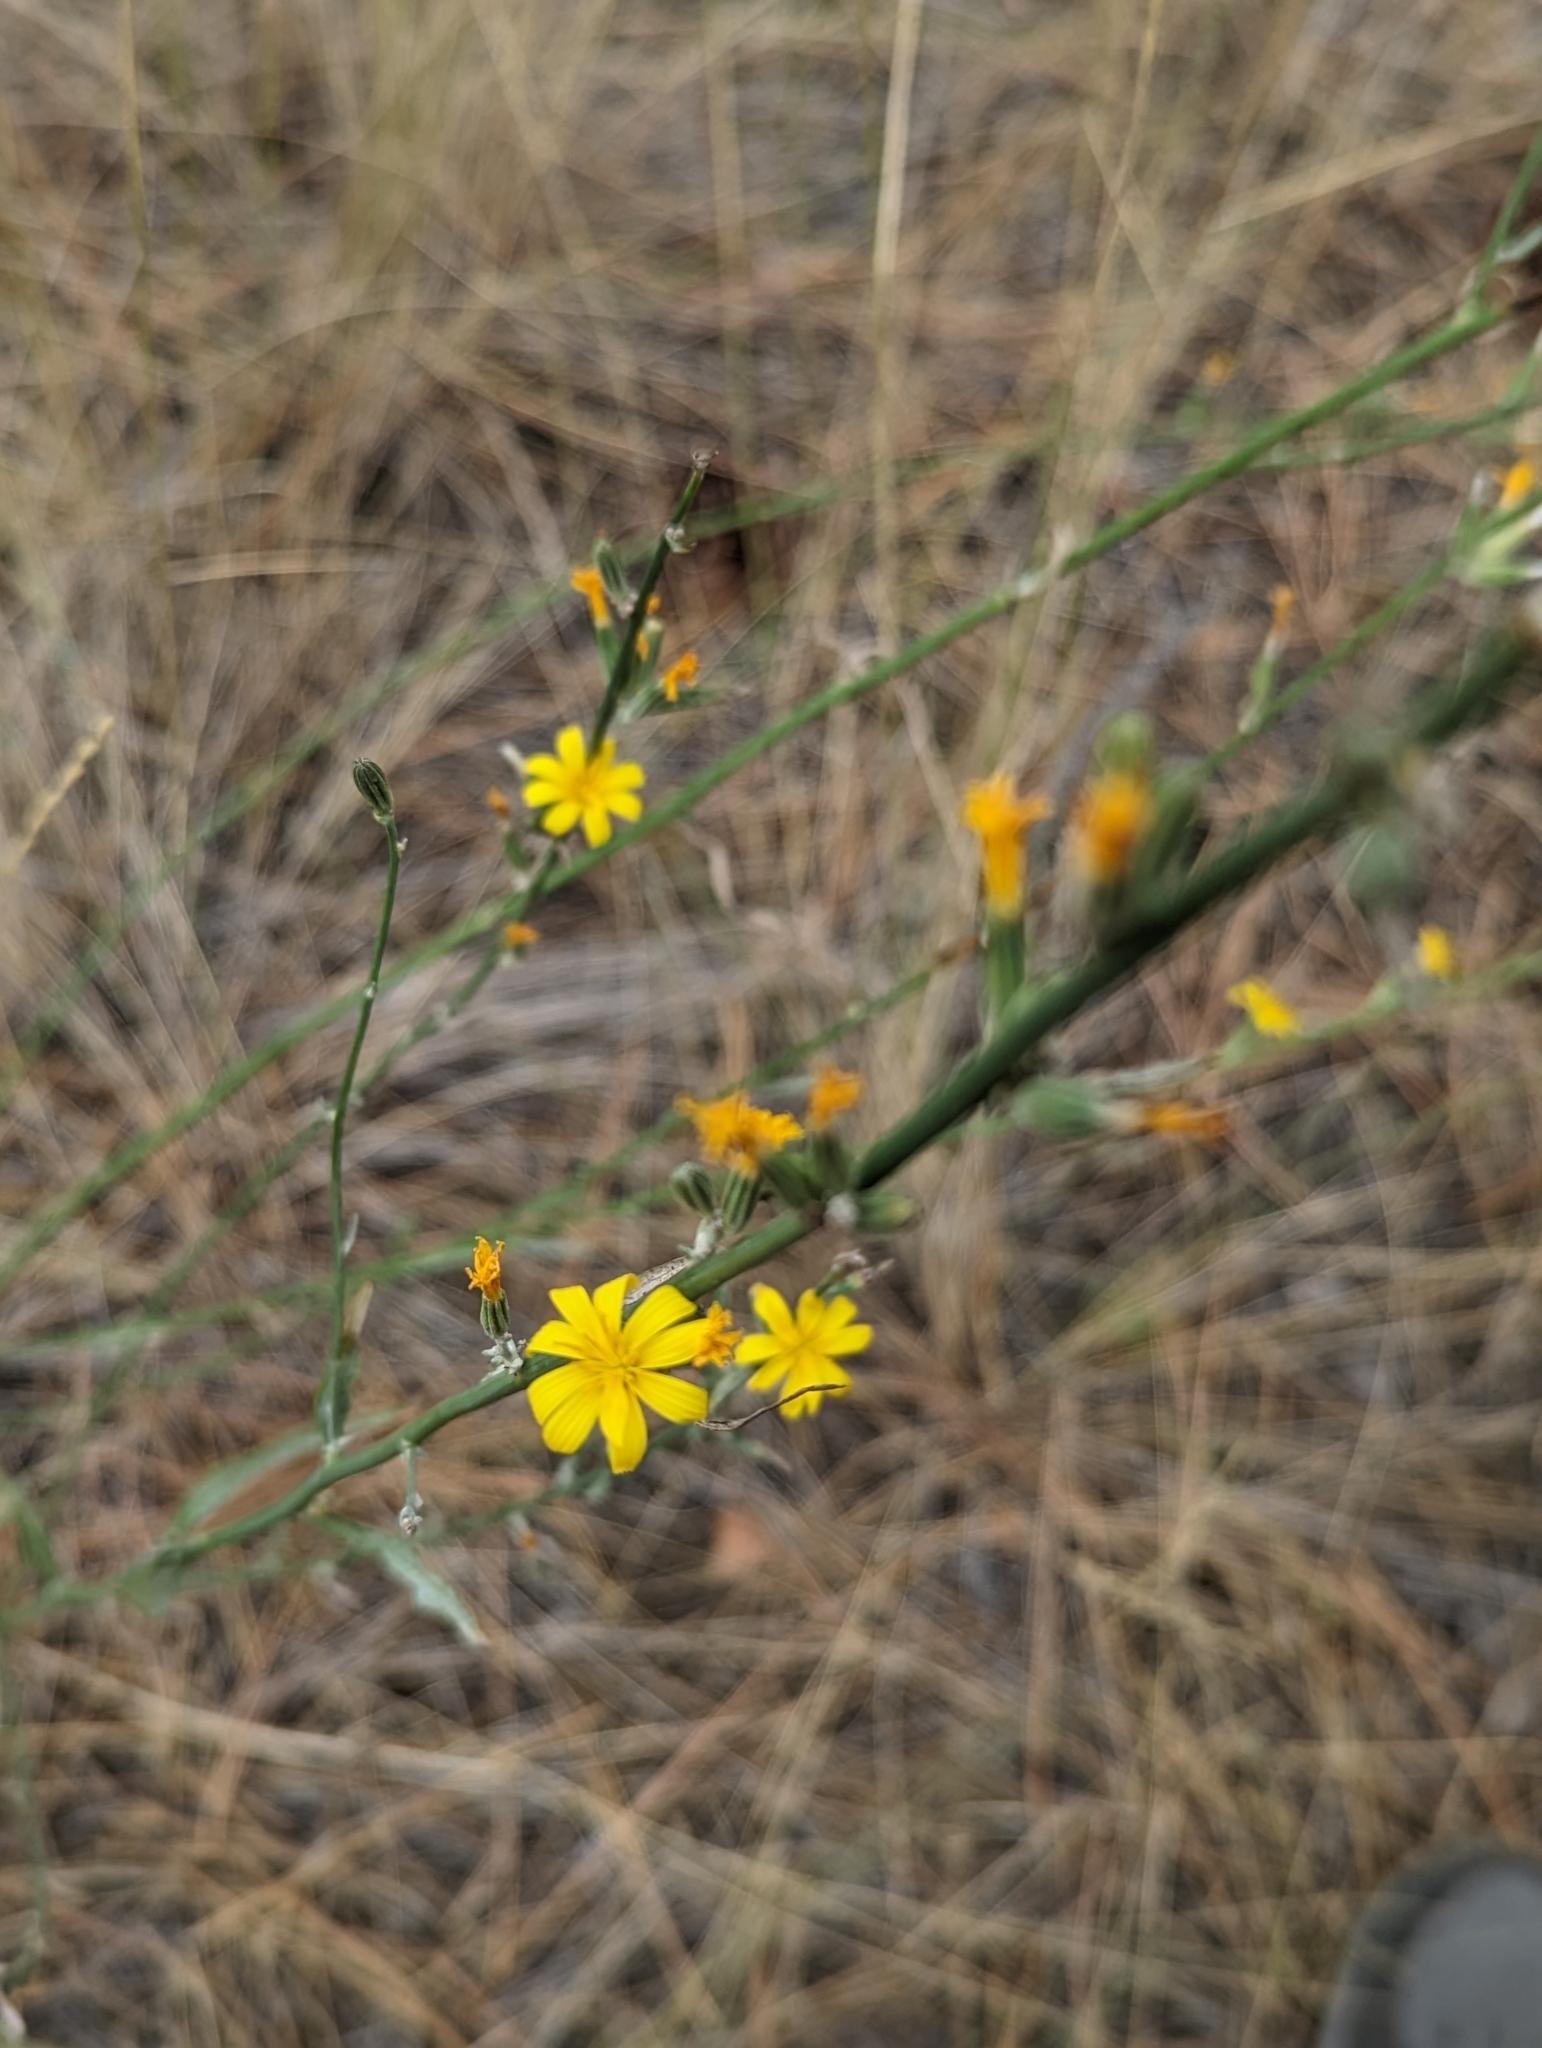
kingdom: Plantae
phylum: Tracheophyta
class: Magnoliopsida
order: Asterales
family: Asteraceae
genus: Chondrilla
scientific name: Chondrilla juncea
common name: Skeleton weed
